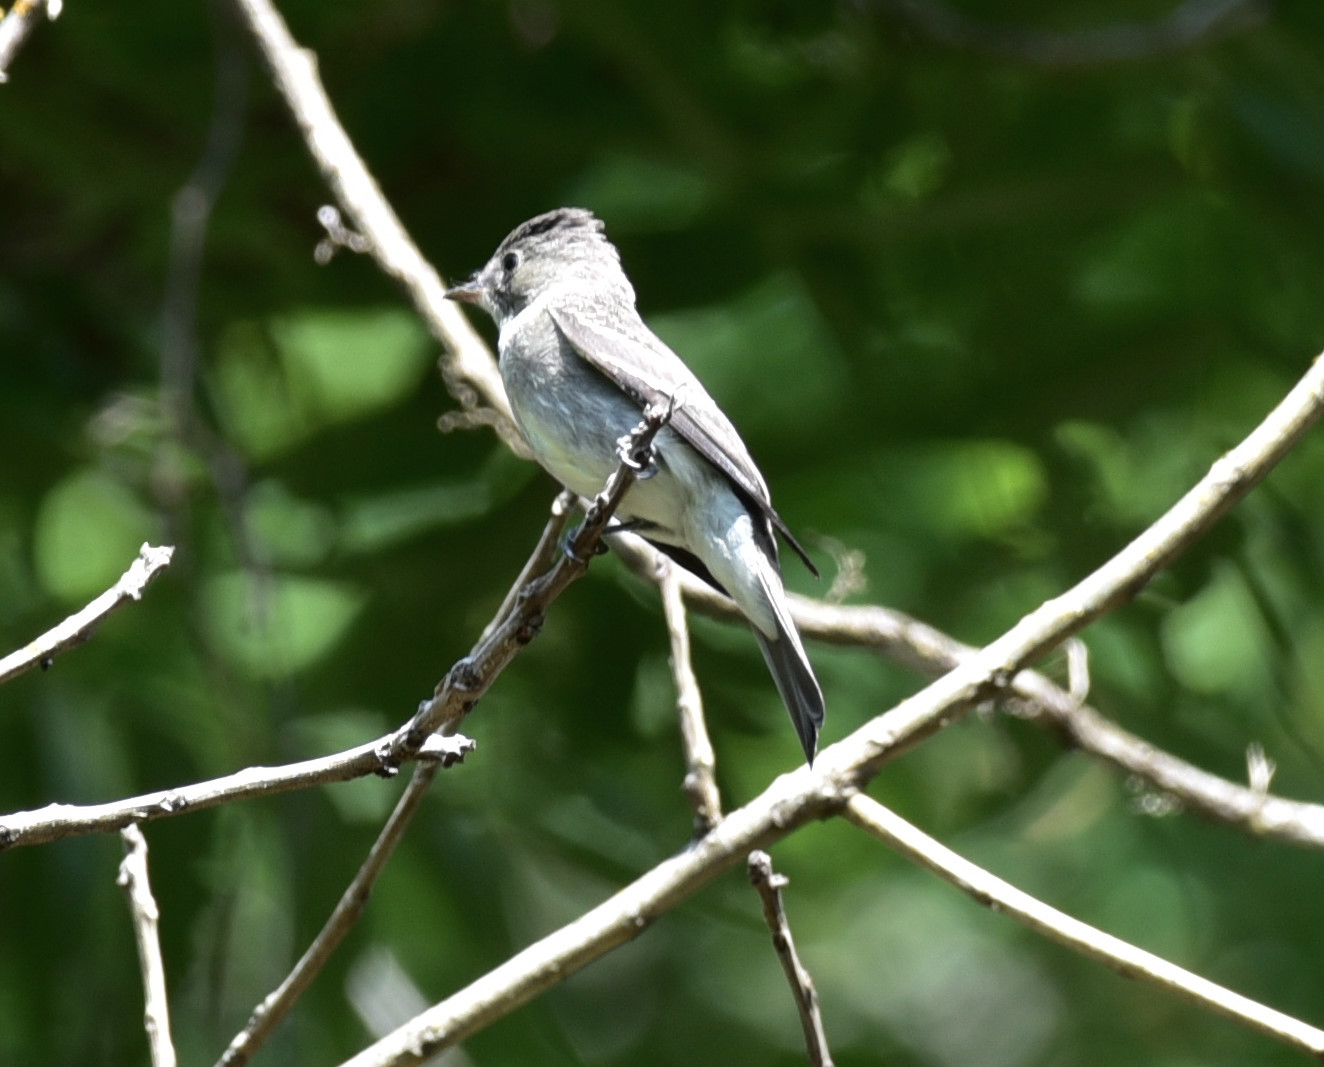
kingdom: Animalia
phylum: Chordata
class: Aves
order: Passeriformes
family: Tyrannidae
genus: Contopus
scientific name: Contopus virens
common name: Eastern wood-pewee
